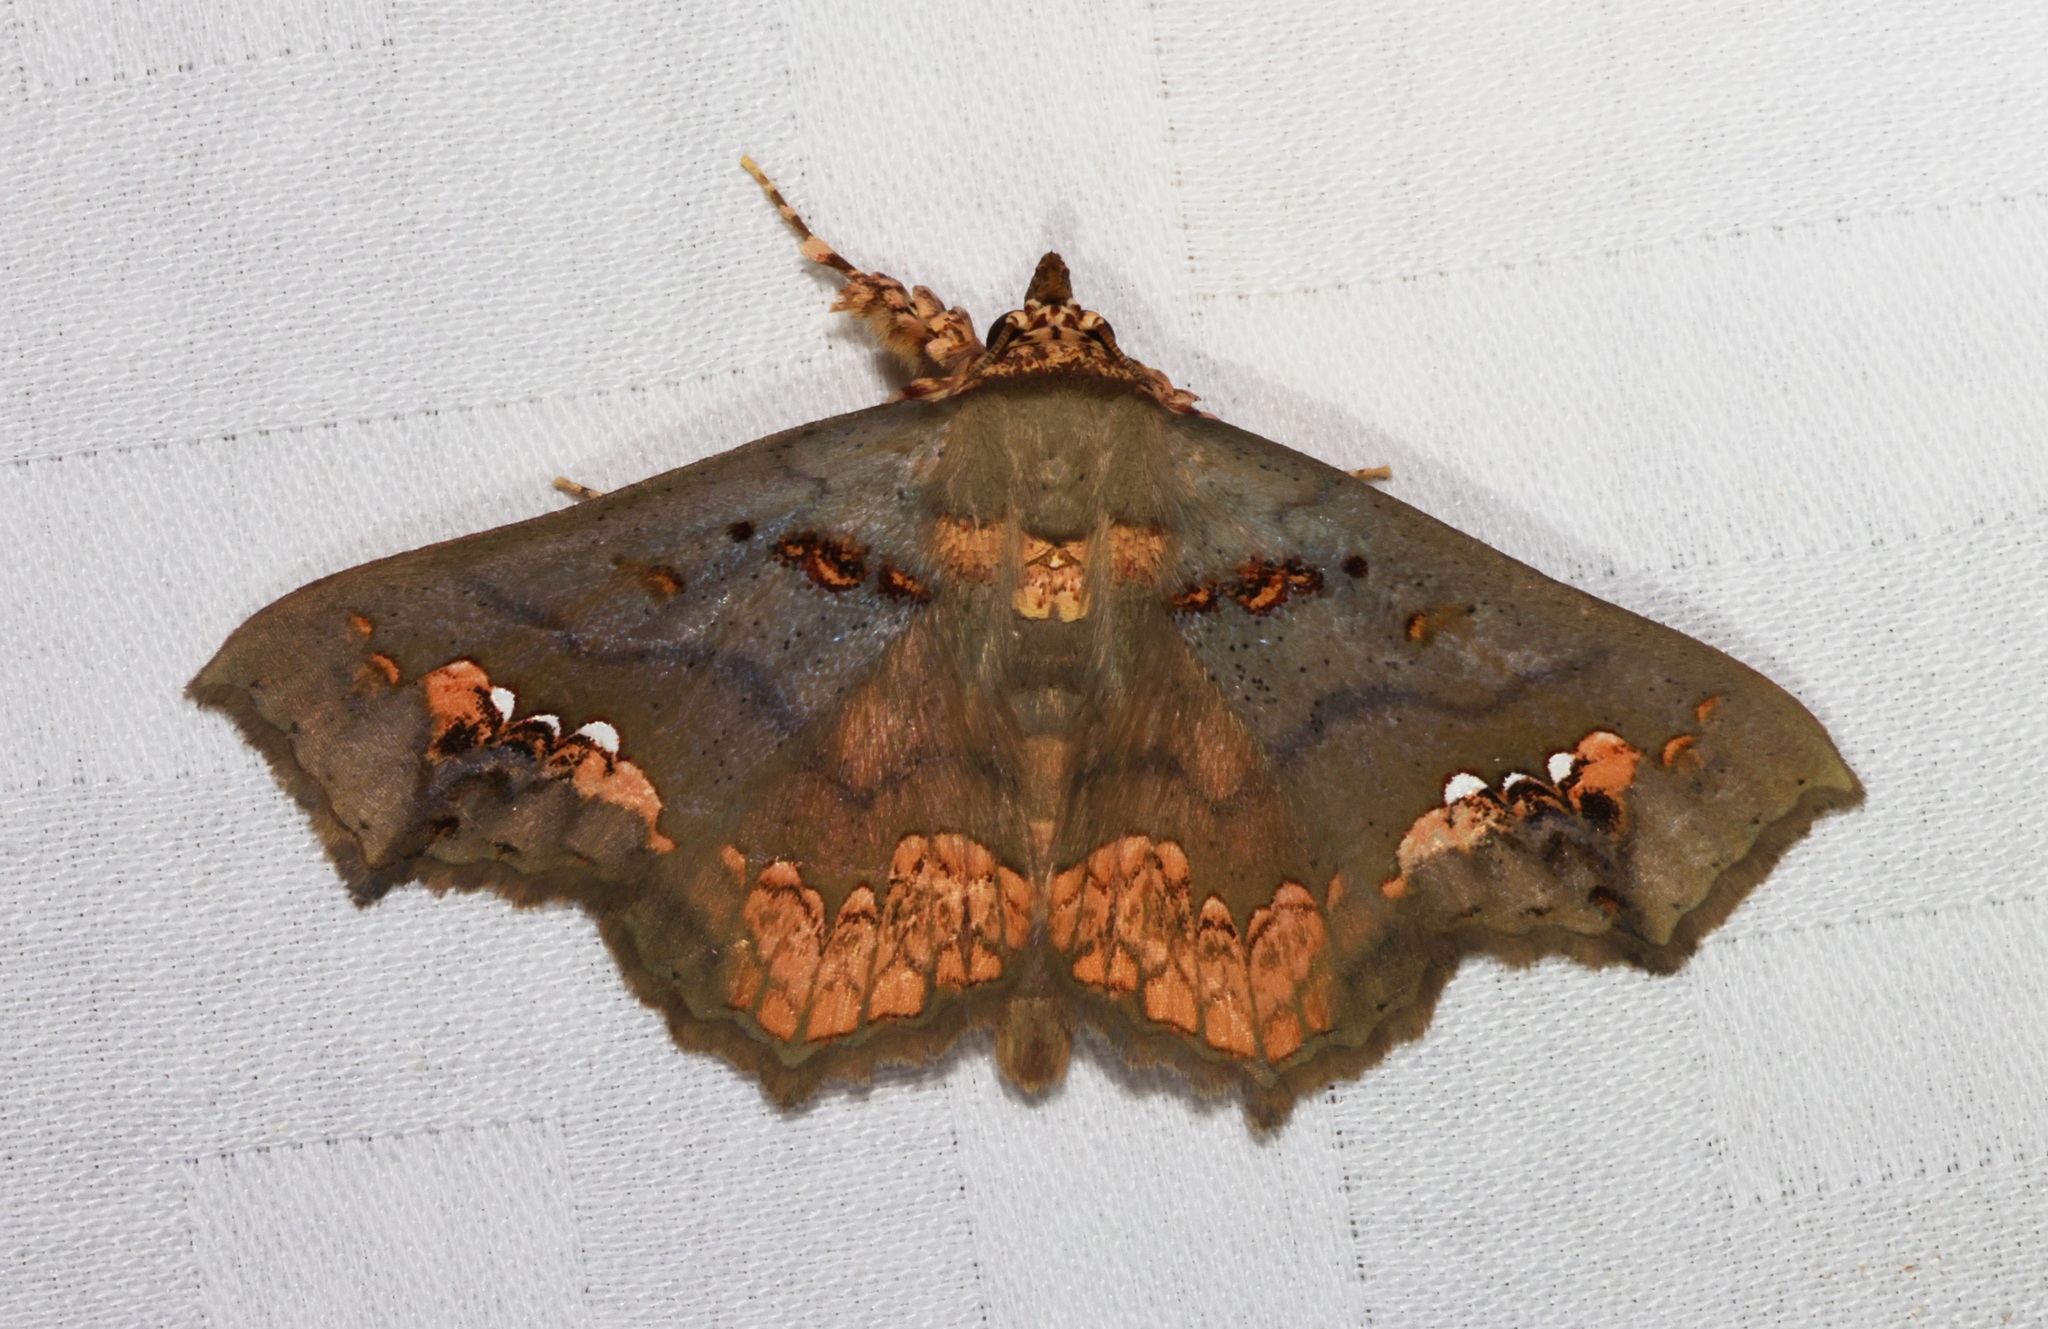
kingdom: Animalia
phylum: Arthropoda
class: Insecta
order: Lepidoptera
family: Erebidae
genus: Lopharthrum
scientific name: Lopharthrum comprimens
